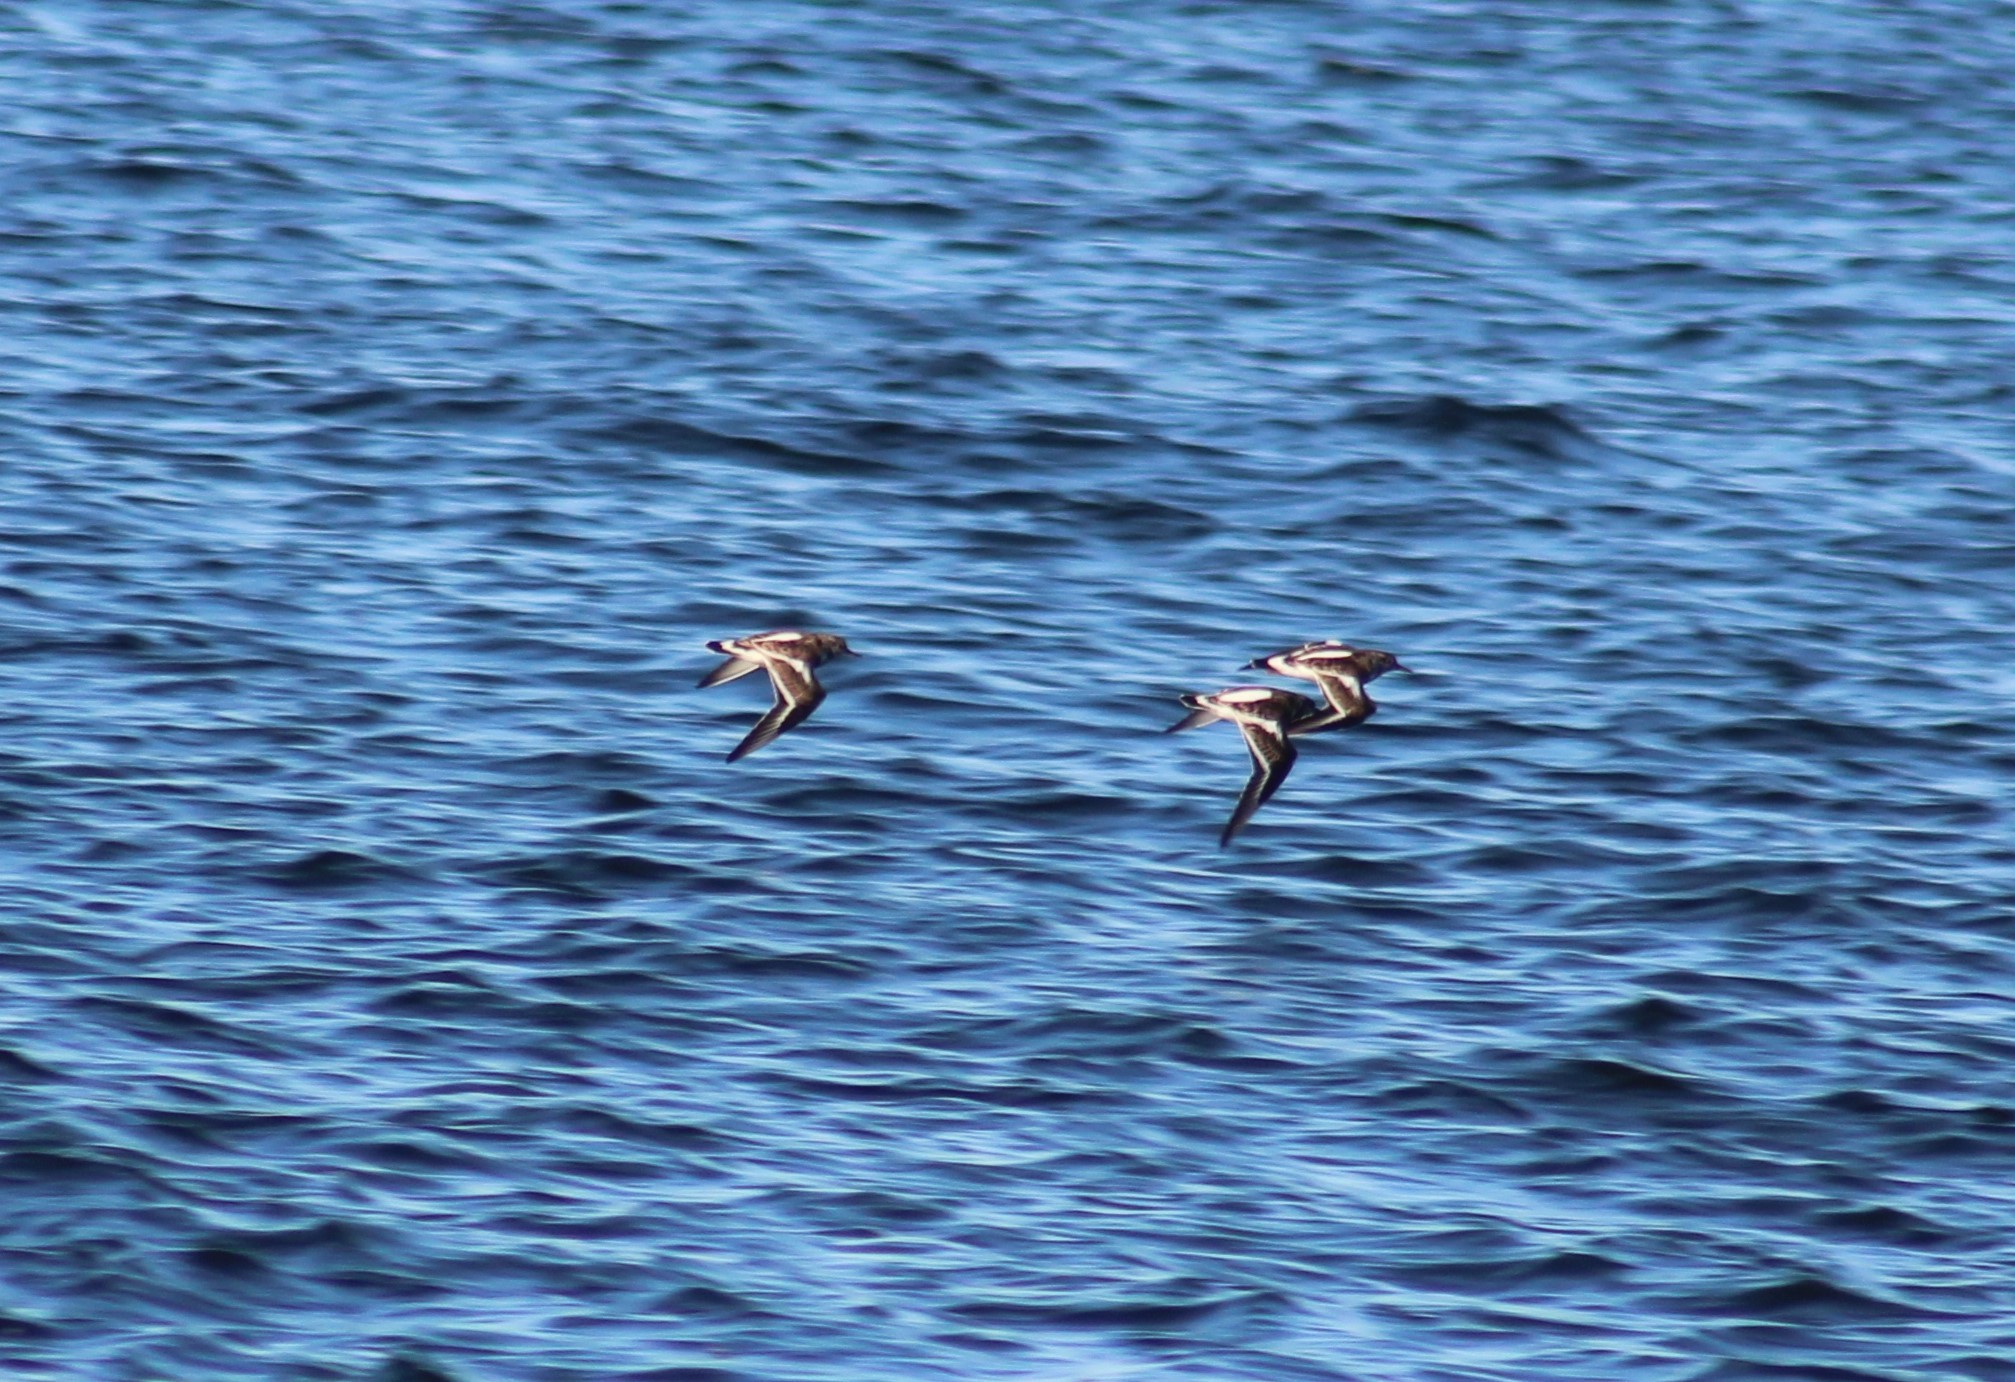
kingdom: Animalia
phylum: Chordata
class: Aves
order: Charadriiformes
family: Scolopacidae
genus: Arenaria
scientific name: Arenaria interpres
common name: Ruddy turnstone
